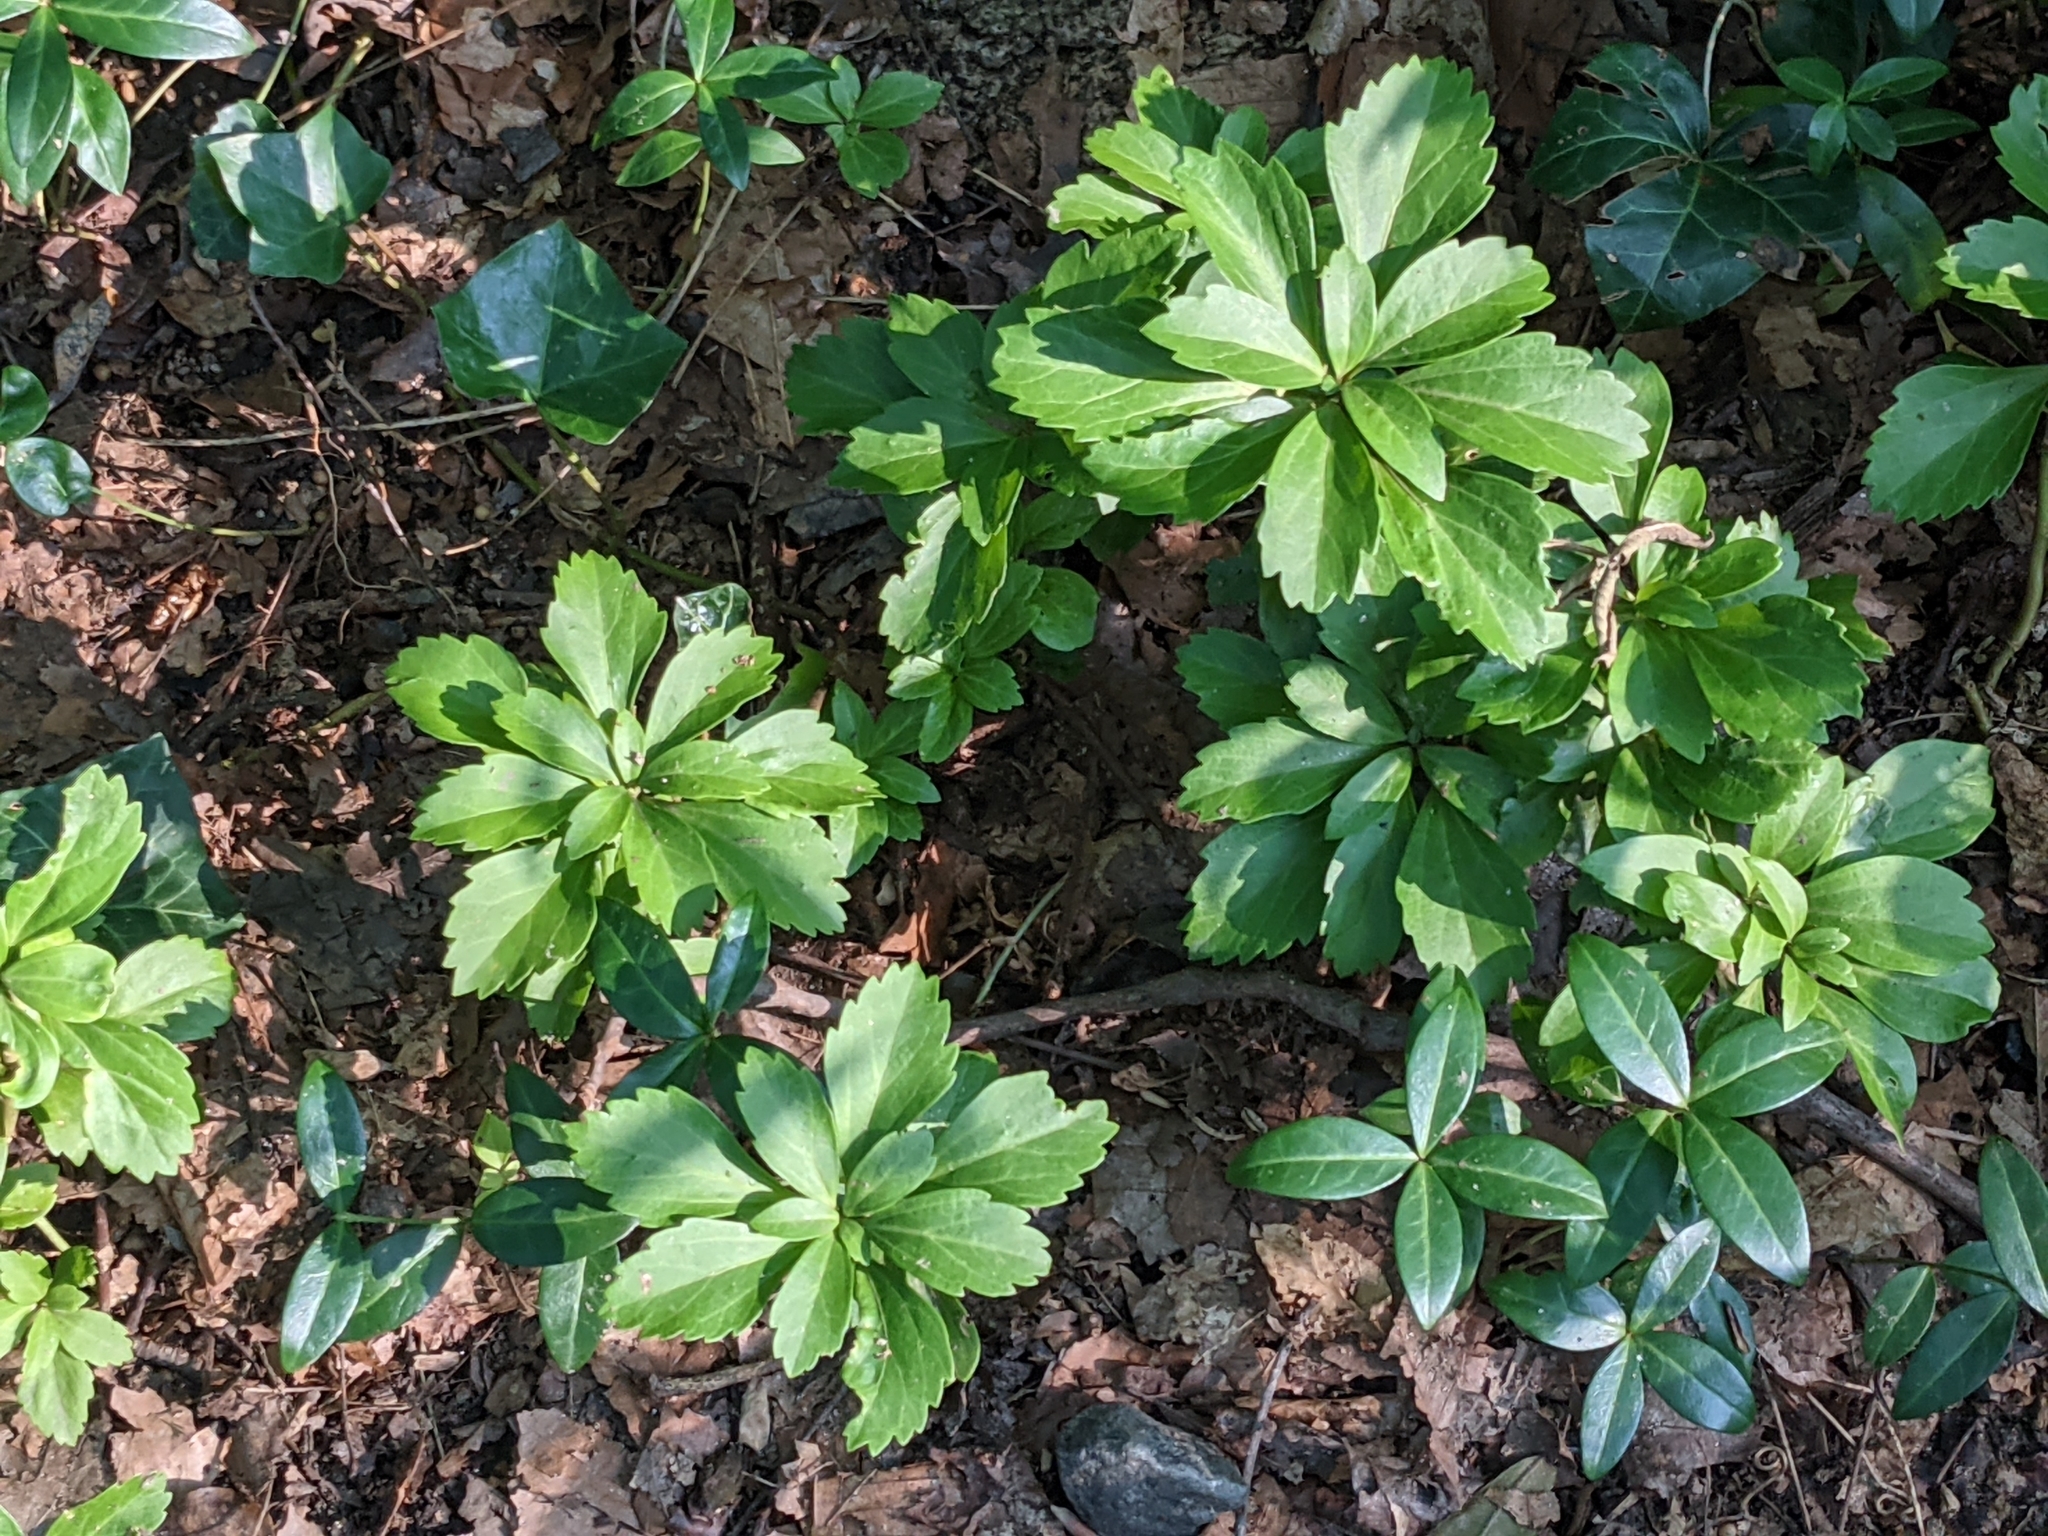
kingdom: Plantae
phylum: Tracheophyta
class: Magnoliopsida
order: Buxales
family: Buxaceae
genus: Pachysandra
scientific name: Pachysandra terminalis
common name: Japanese pachysandra
